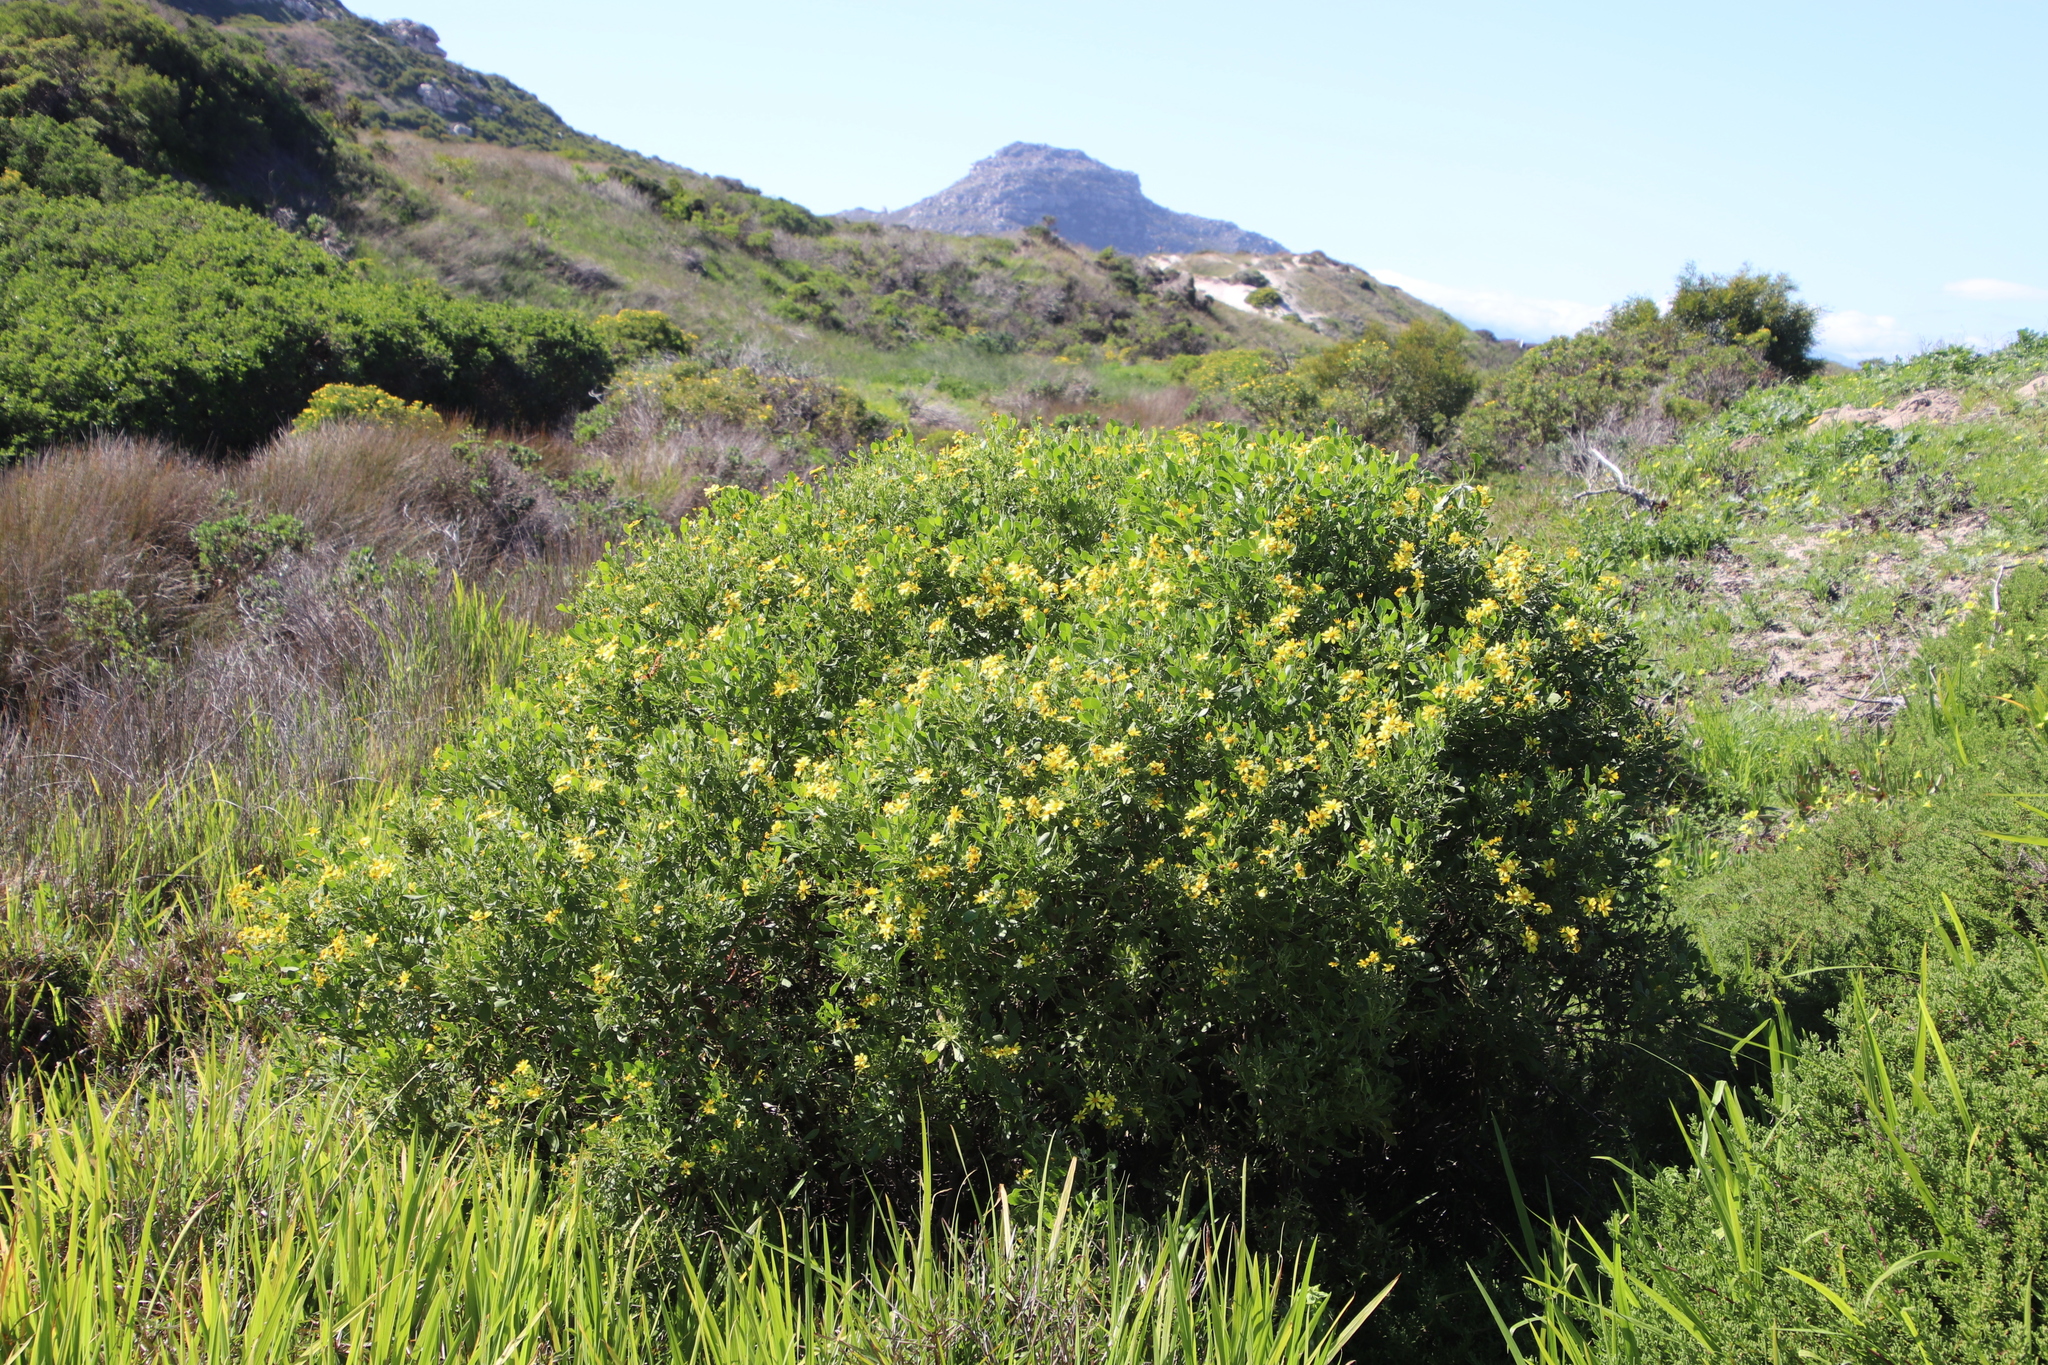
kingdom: Plantae
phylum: Tracheophyta
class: Magnoliopsida
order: Asterales
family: Asteraceae
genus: Osteospermum
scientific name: Osteospermum moniliferum
